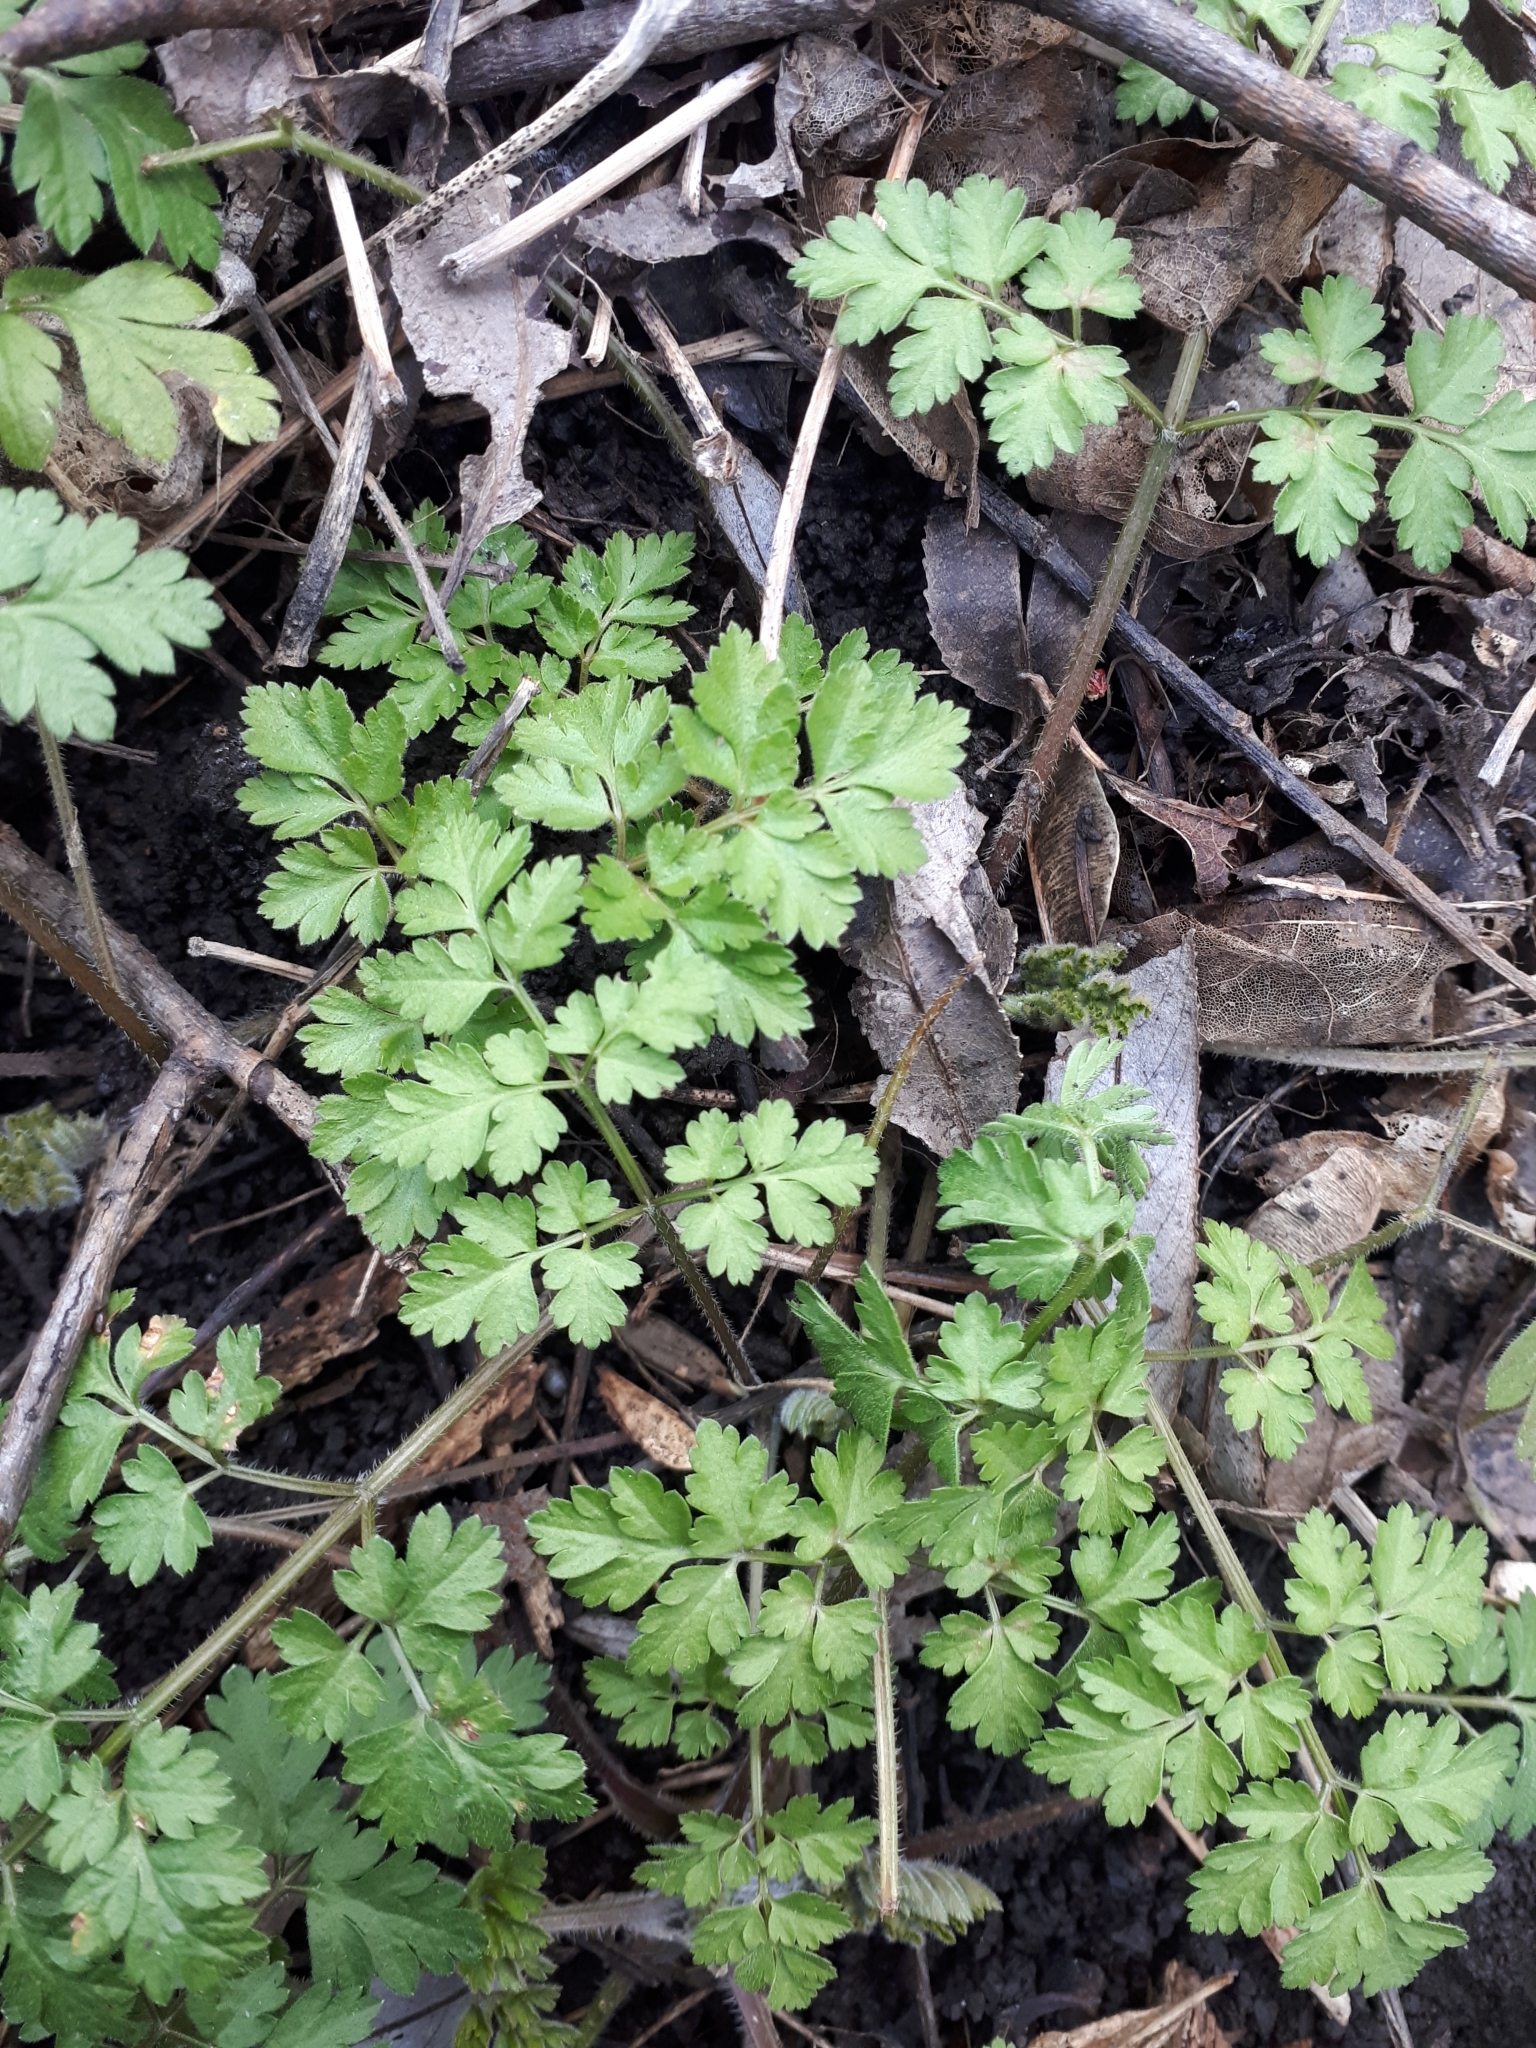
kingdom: Plantae
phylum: Tracheophyta
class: Magnoliopsida
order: Apiales
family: Apiaceae
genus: Chaerophyllum
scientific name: Chaerophyllum temulum
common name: Rough chervil
